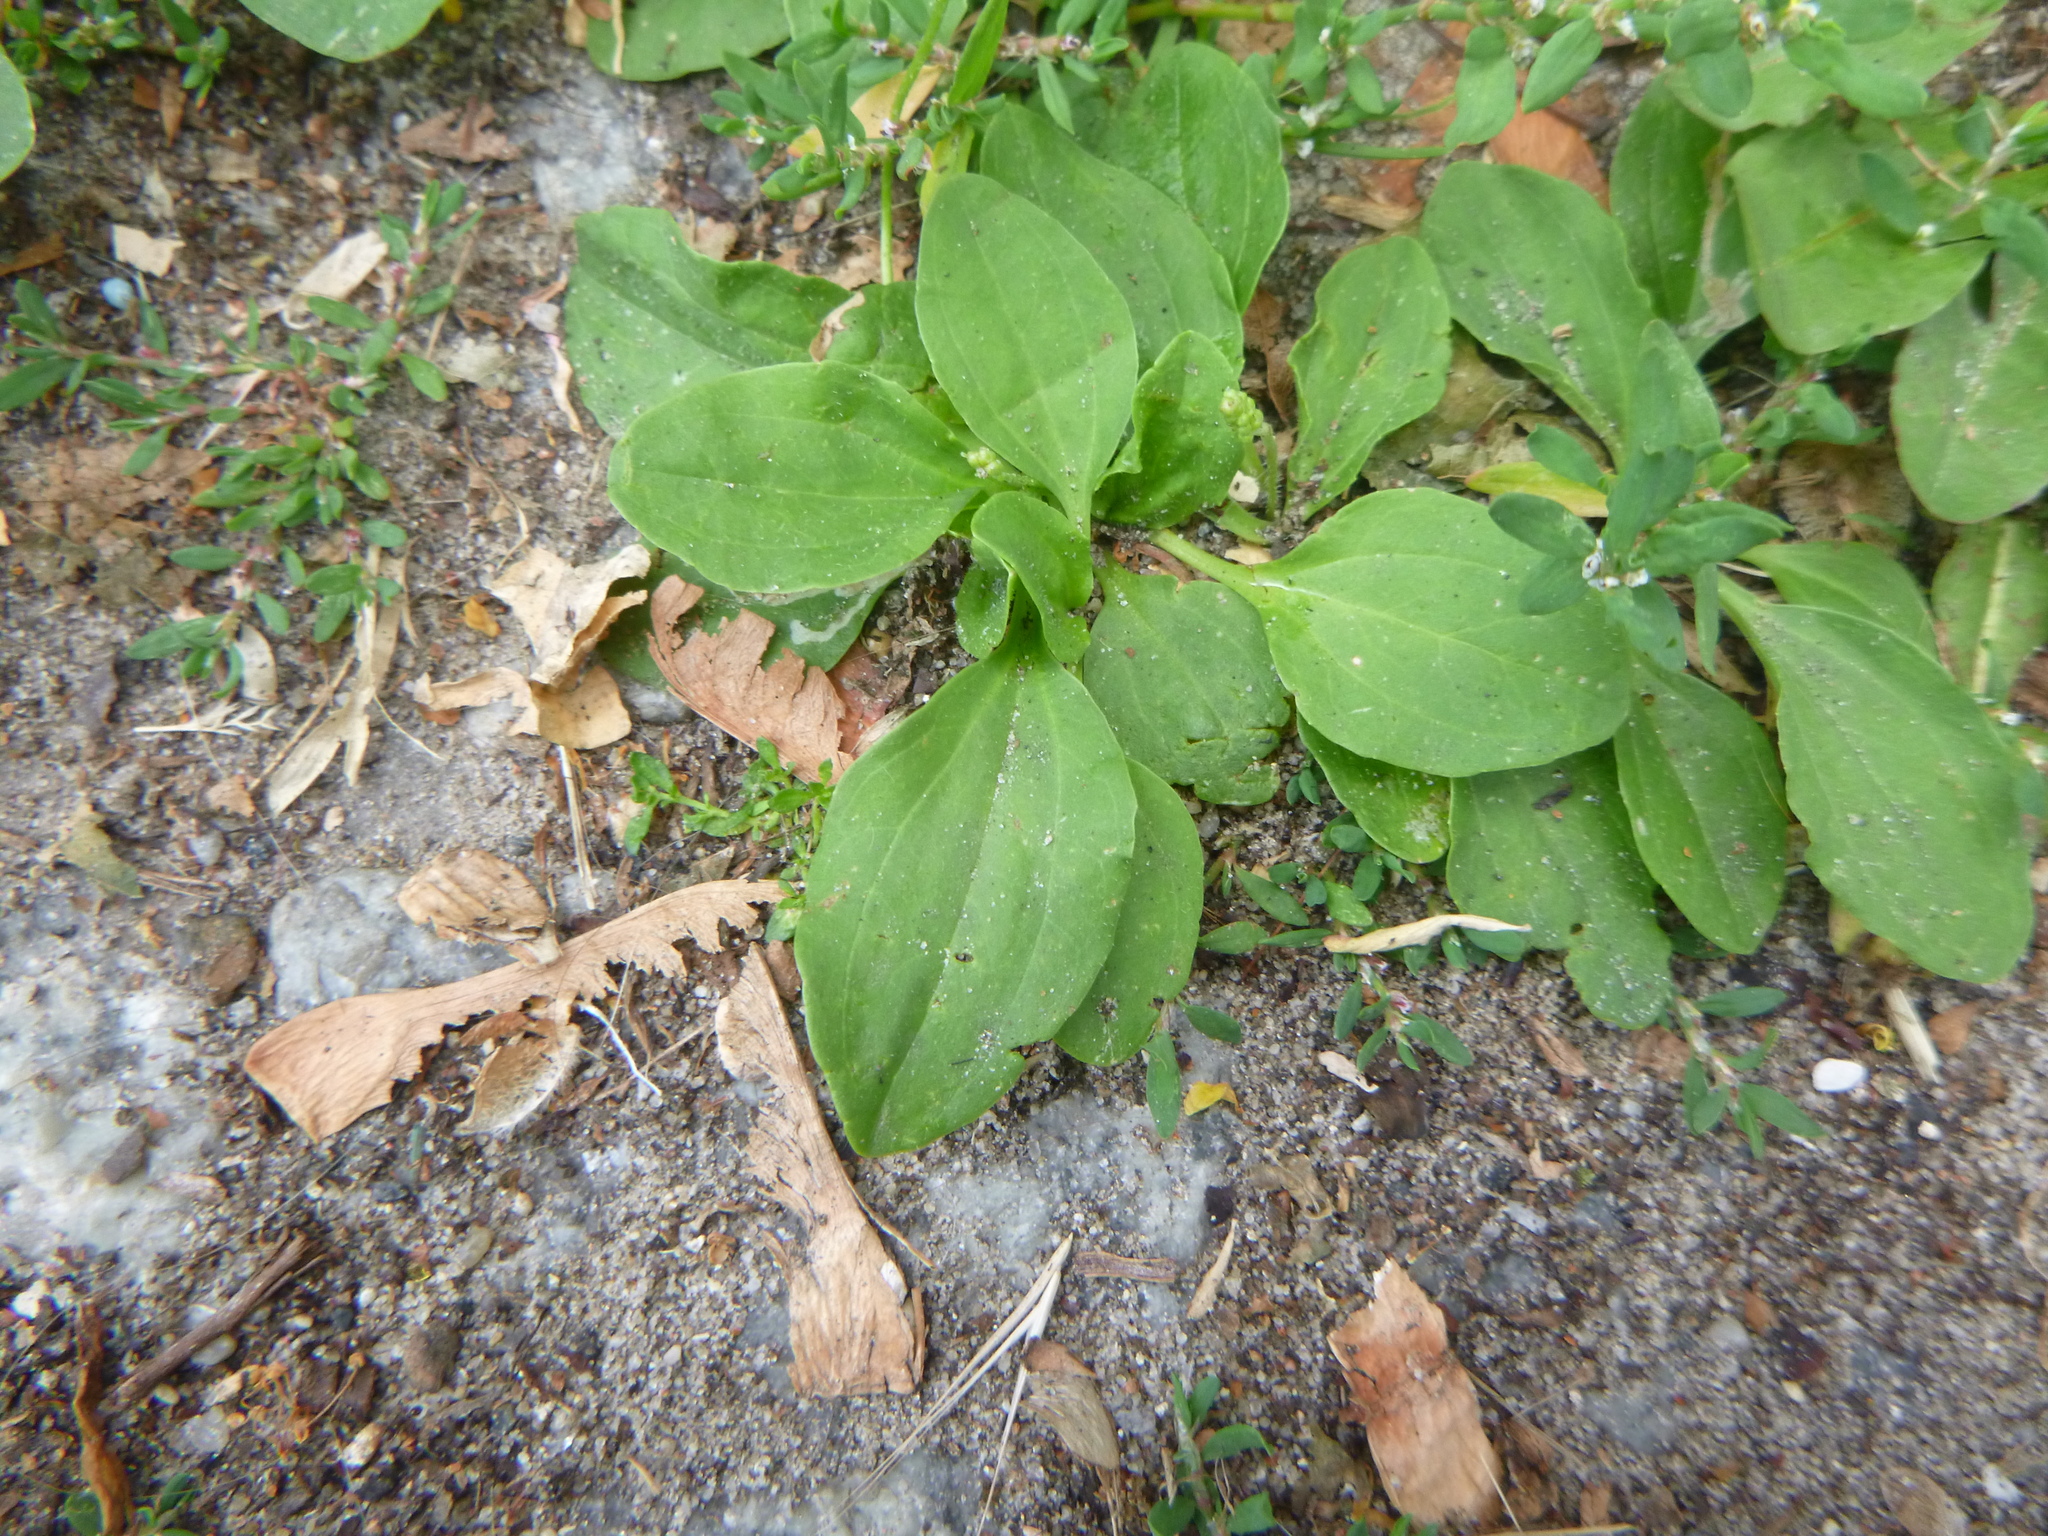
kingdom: Plantae
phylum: Tracheophyta
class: Magnoliopsida
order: Lamiales
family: Plantaginaceae
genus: Plantago
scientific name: Plantago major
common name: Common plantain
